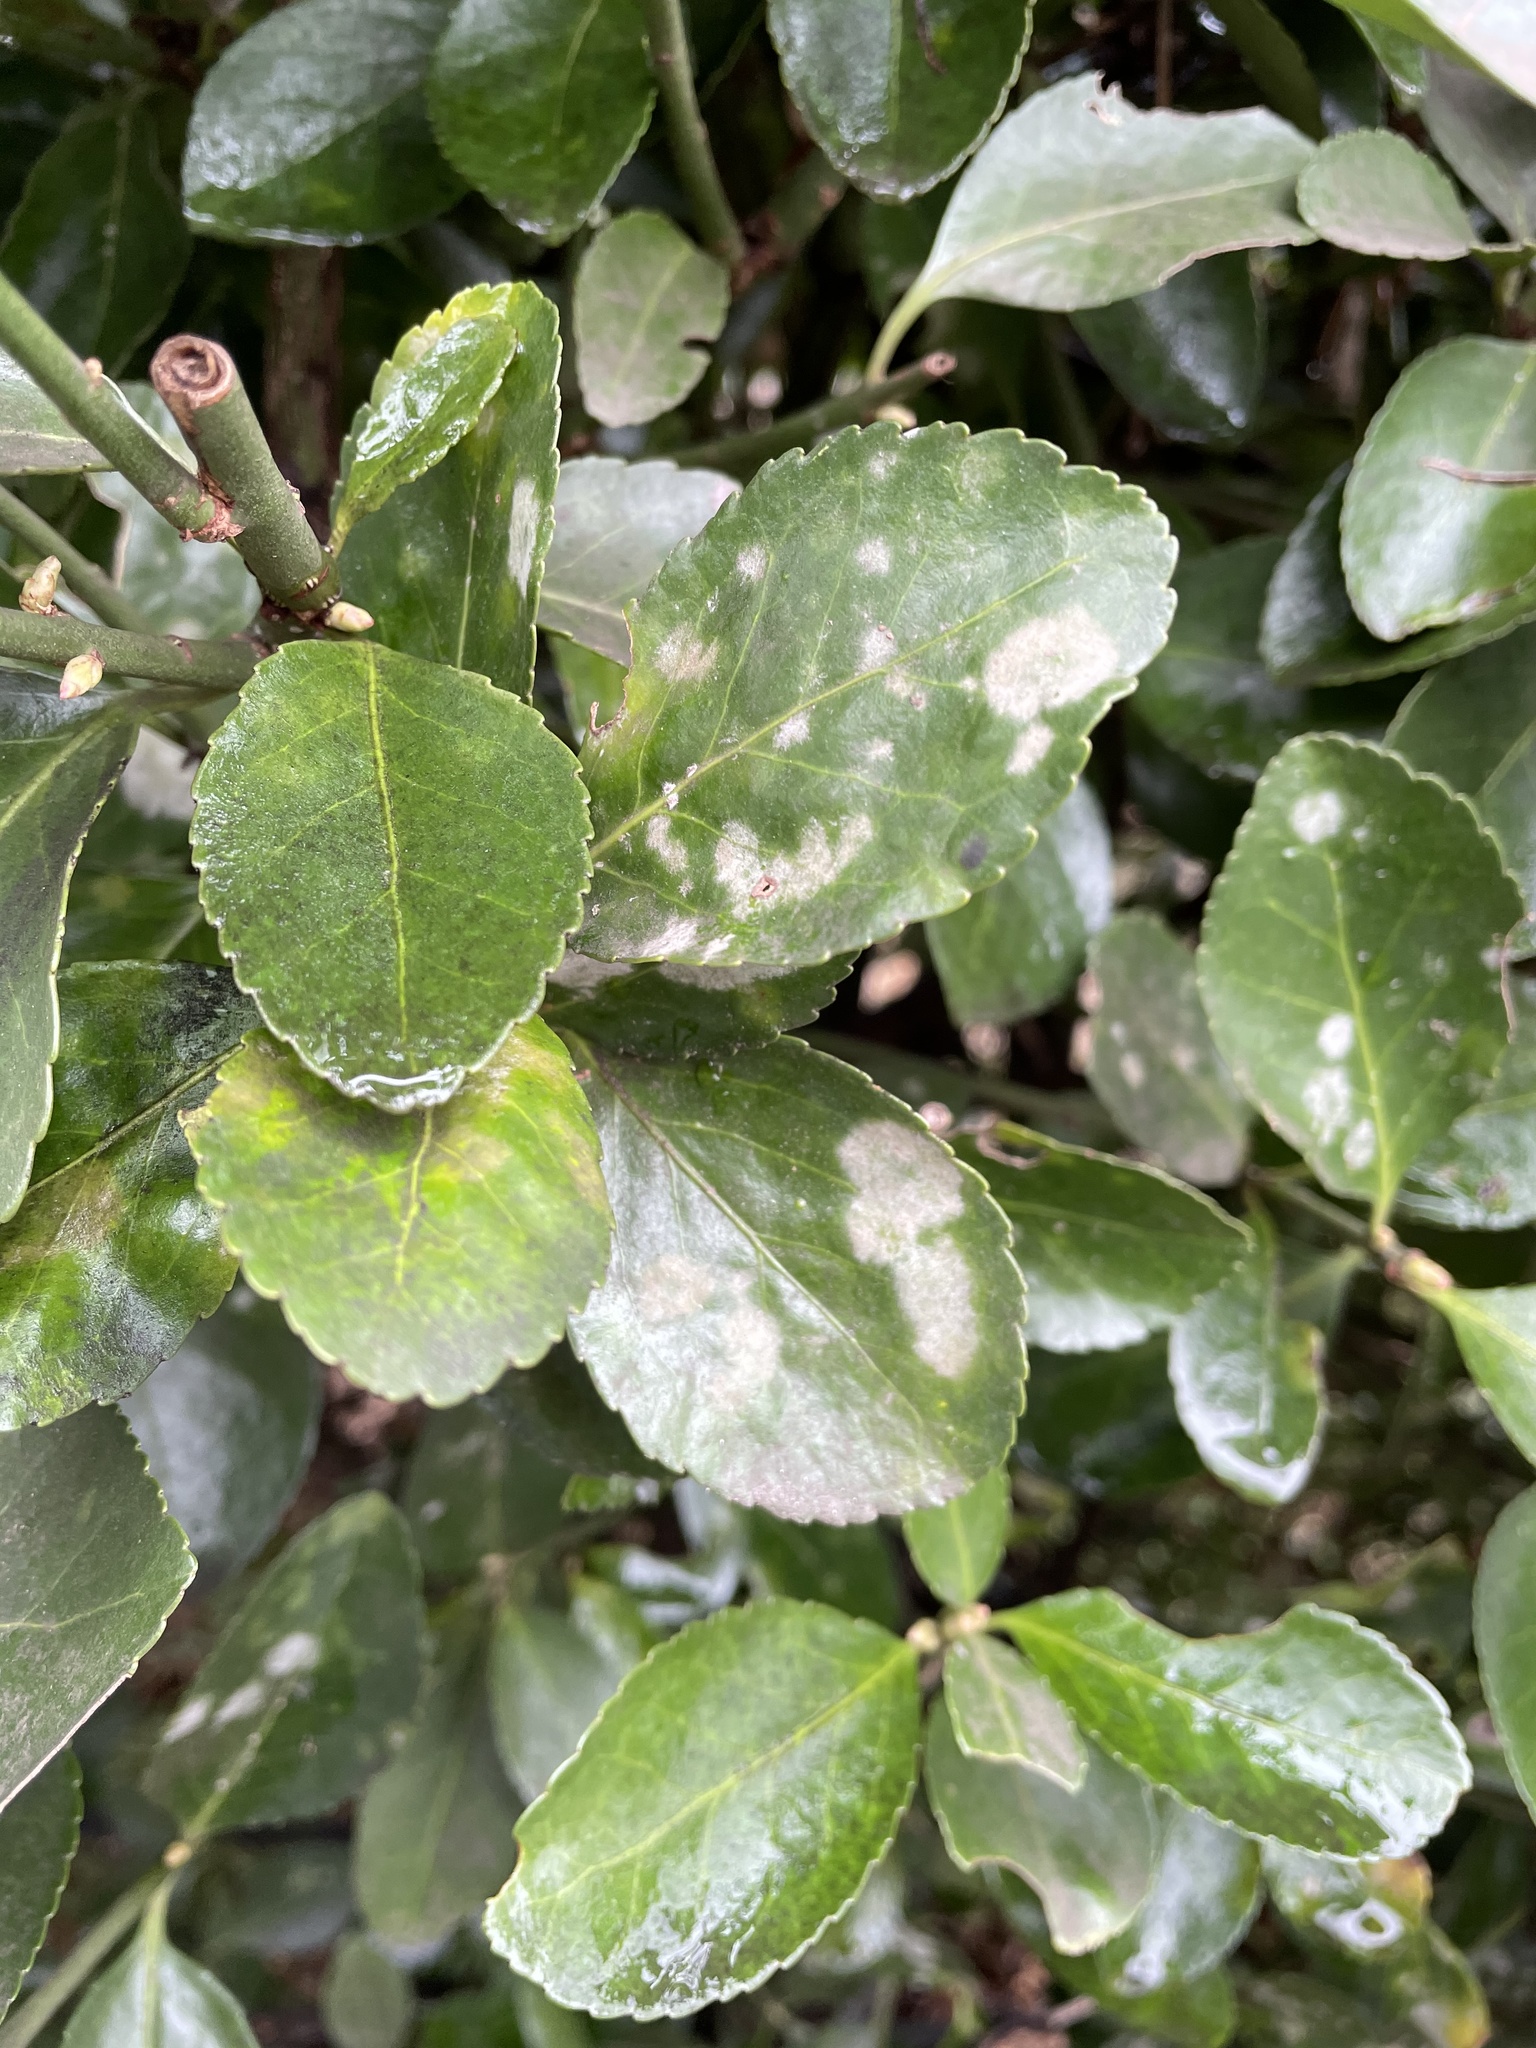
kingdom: Fungi
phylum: Ascomycota
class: Leotiomycetes
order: Helotiales
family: Erysiphaceae
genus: Erysiphe
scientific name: Erysiphe euonymicola
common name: Spindletree mildew
